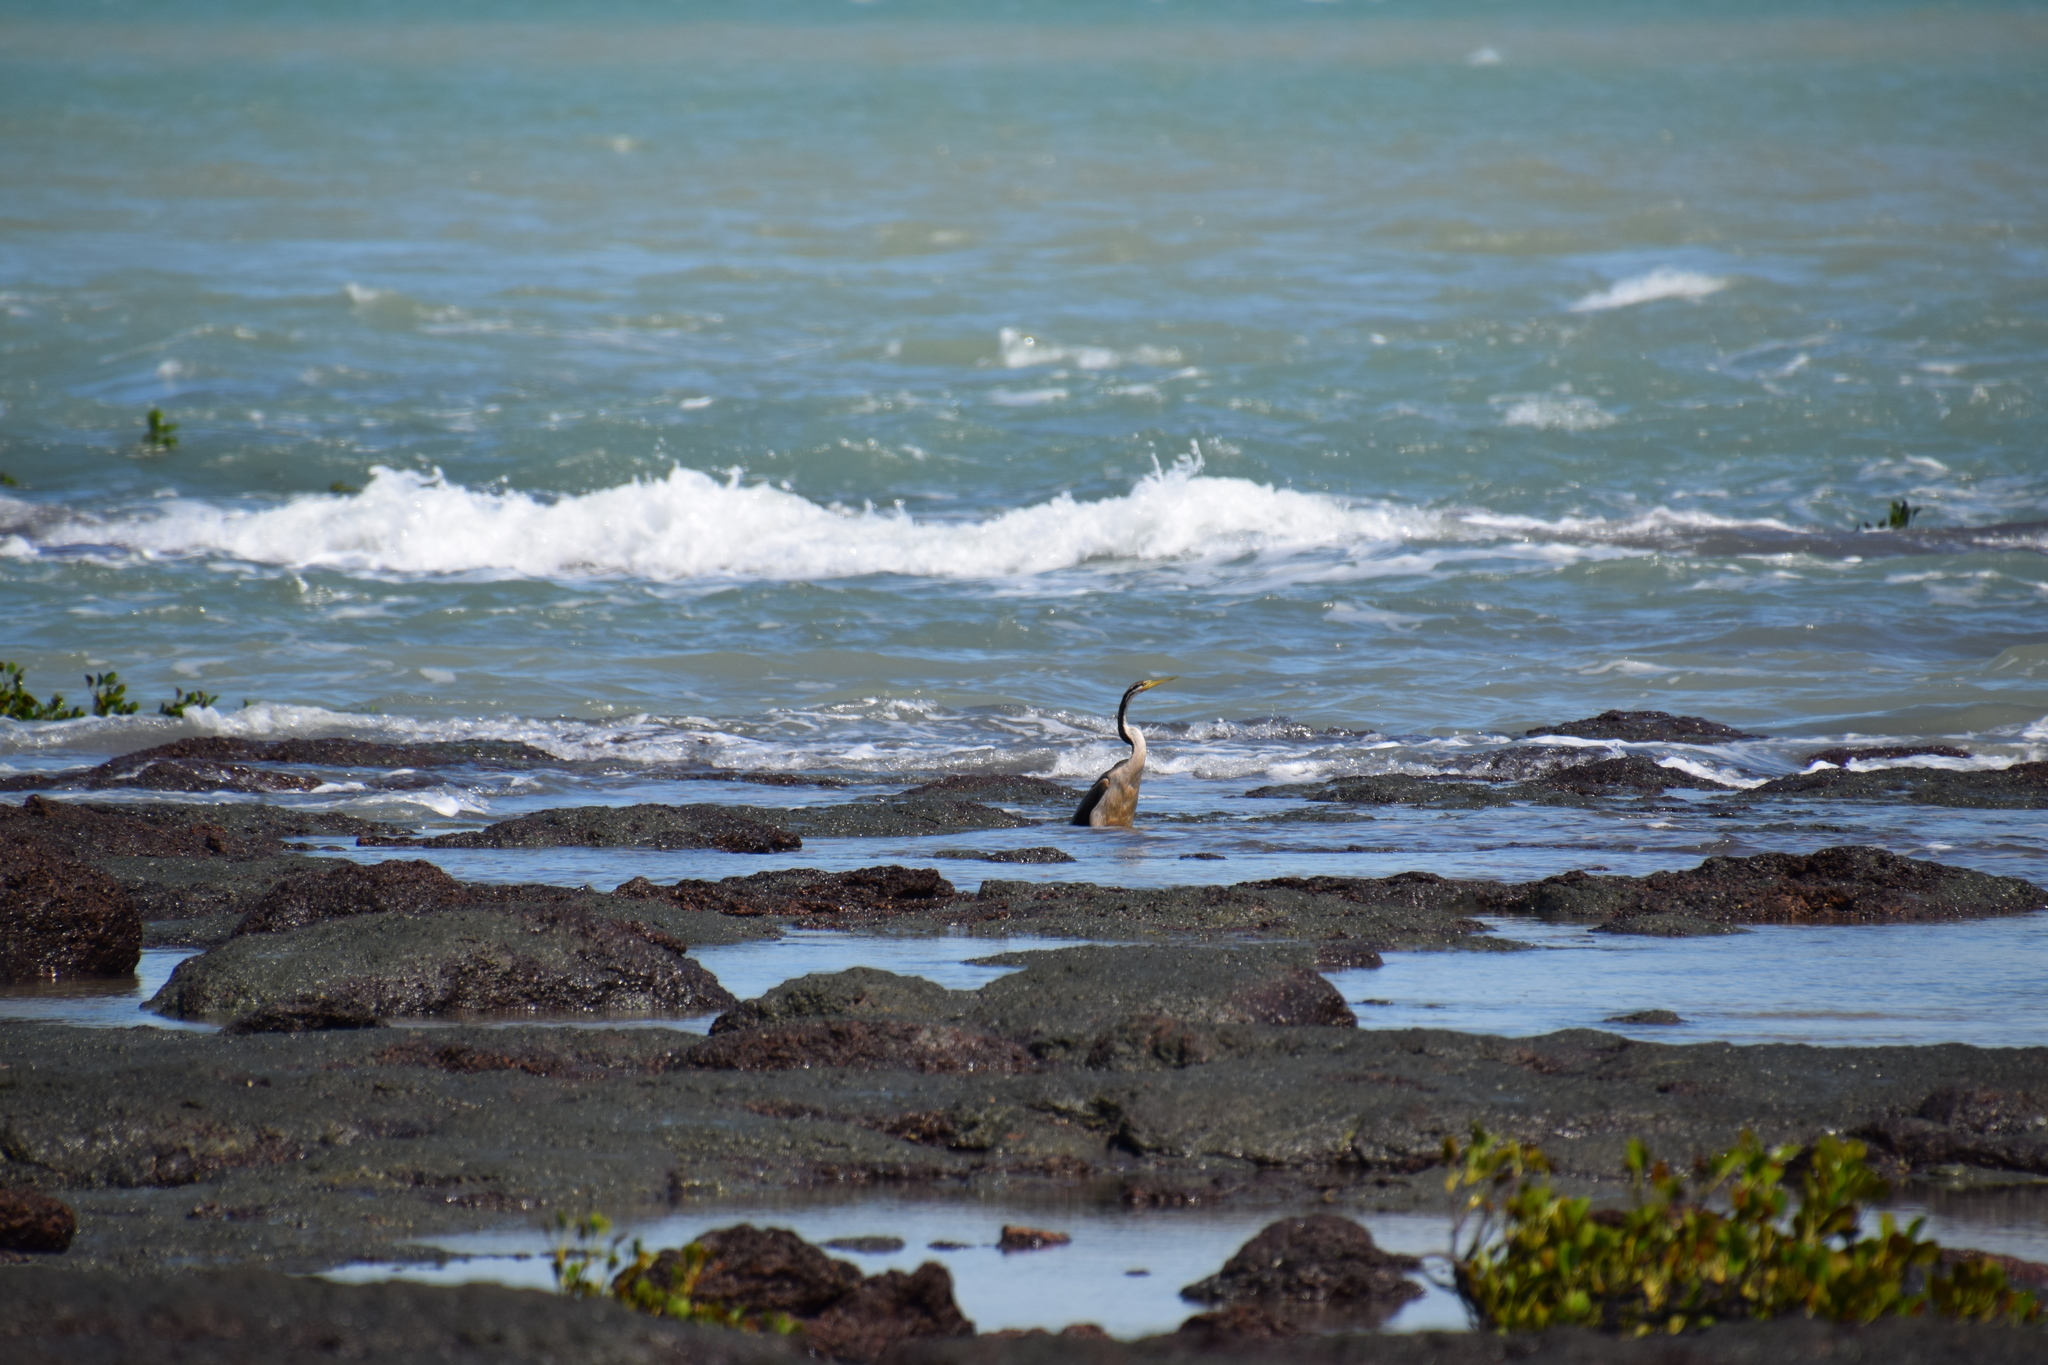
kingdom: Animalia
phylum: Chordata
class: Aves
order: Suliformes
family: Anhingidae
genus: Anhinga
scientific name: Anhinga novaehollandiae
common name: Australasian darter
